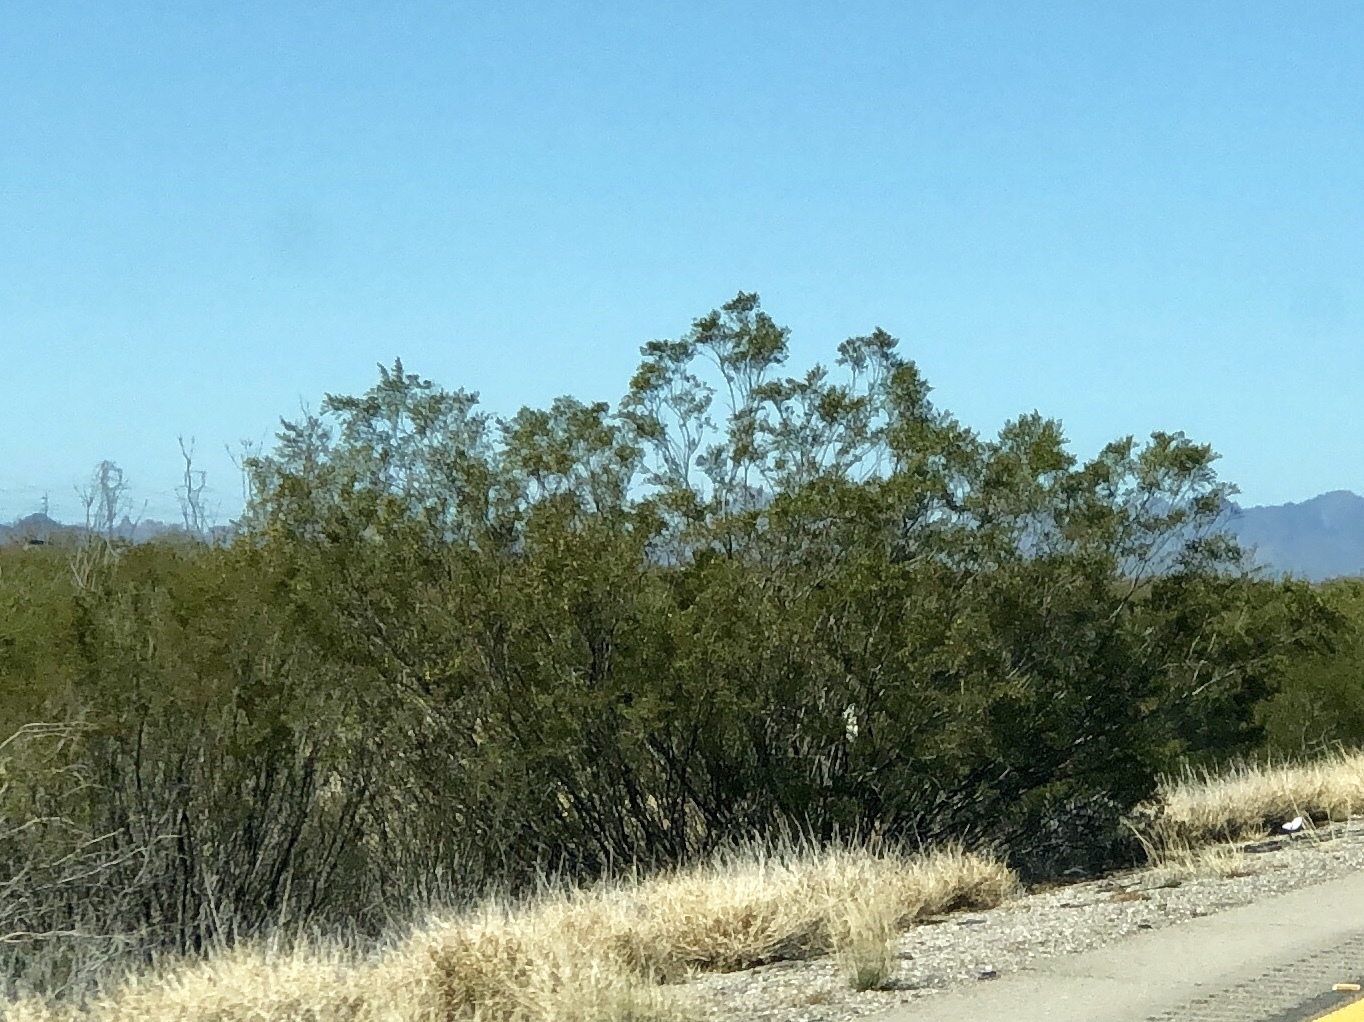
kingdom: Plantae
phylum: Tracheophyta
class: Magnoliopsida
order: Zygophyllales
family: Zygophyllaceae
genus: Larrea
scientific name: Larrea tridentata
